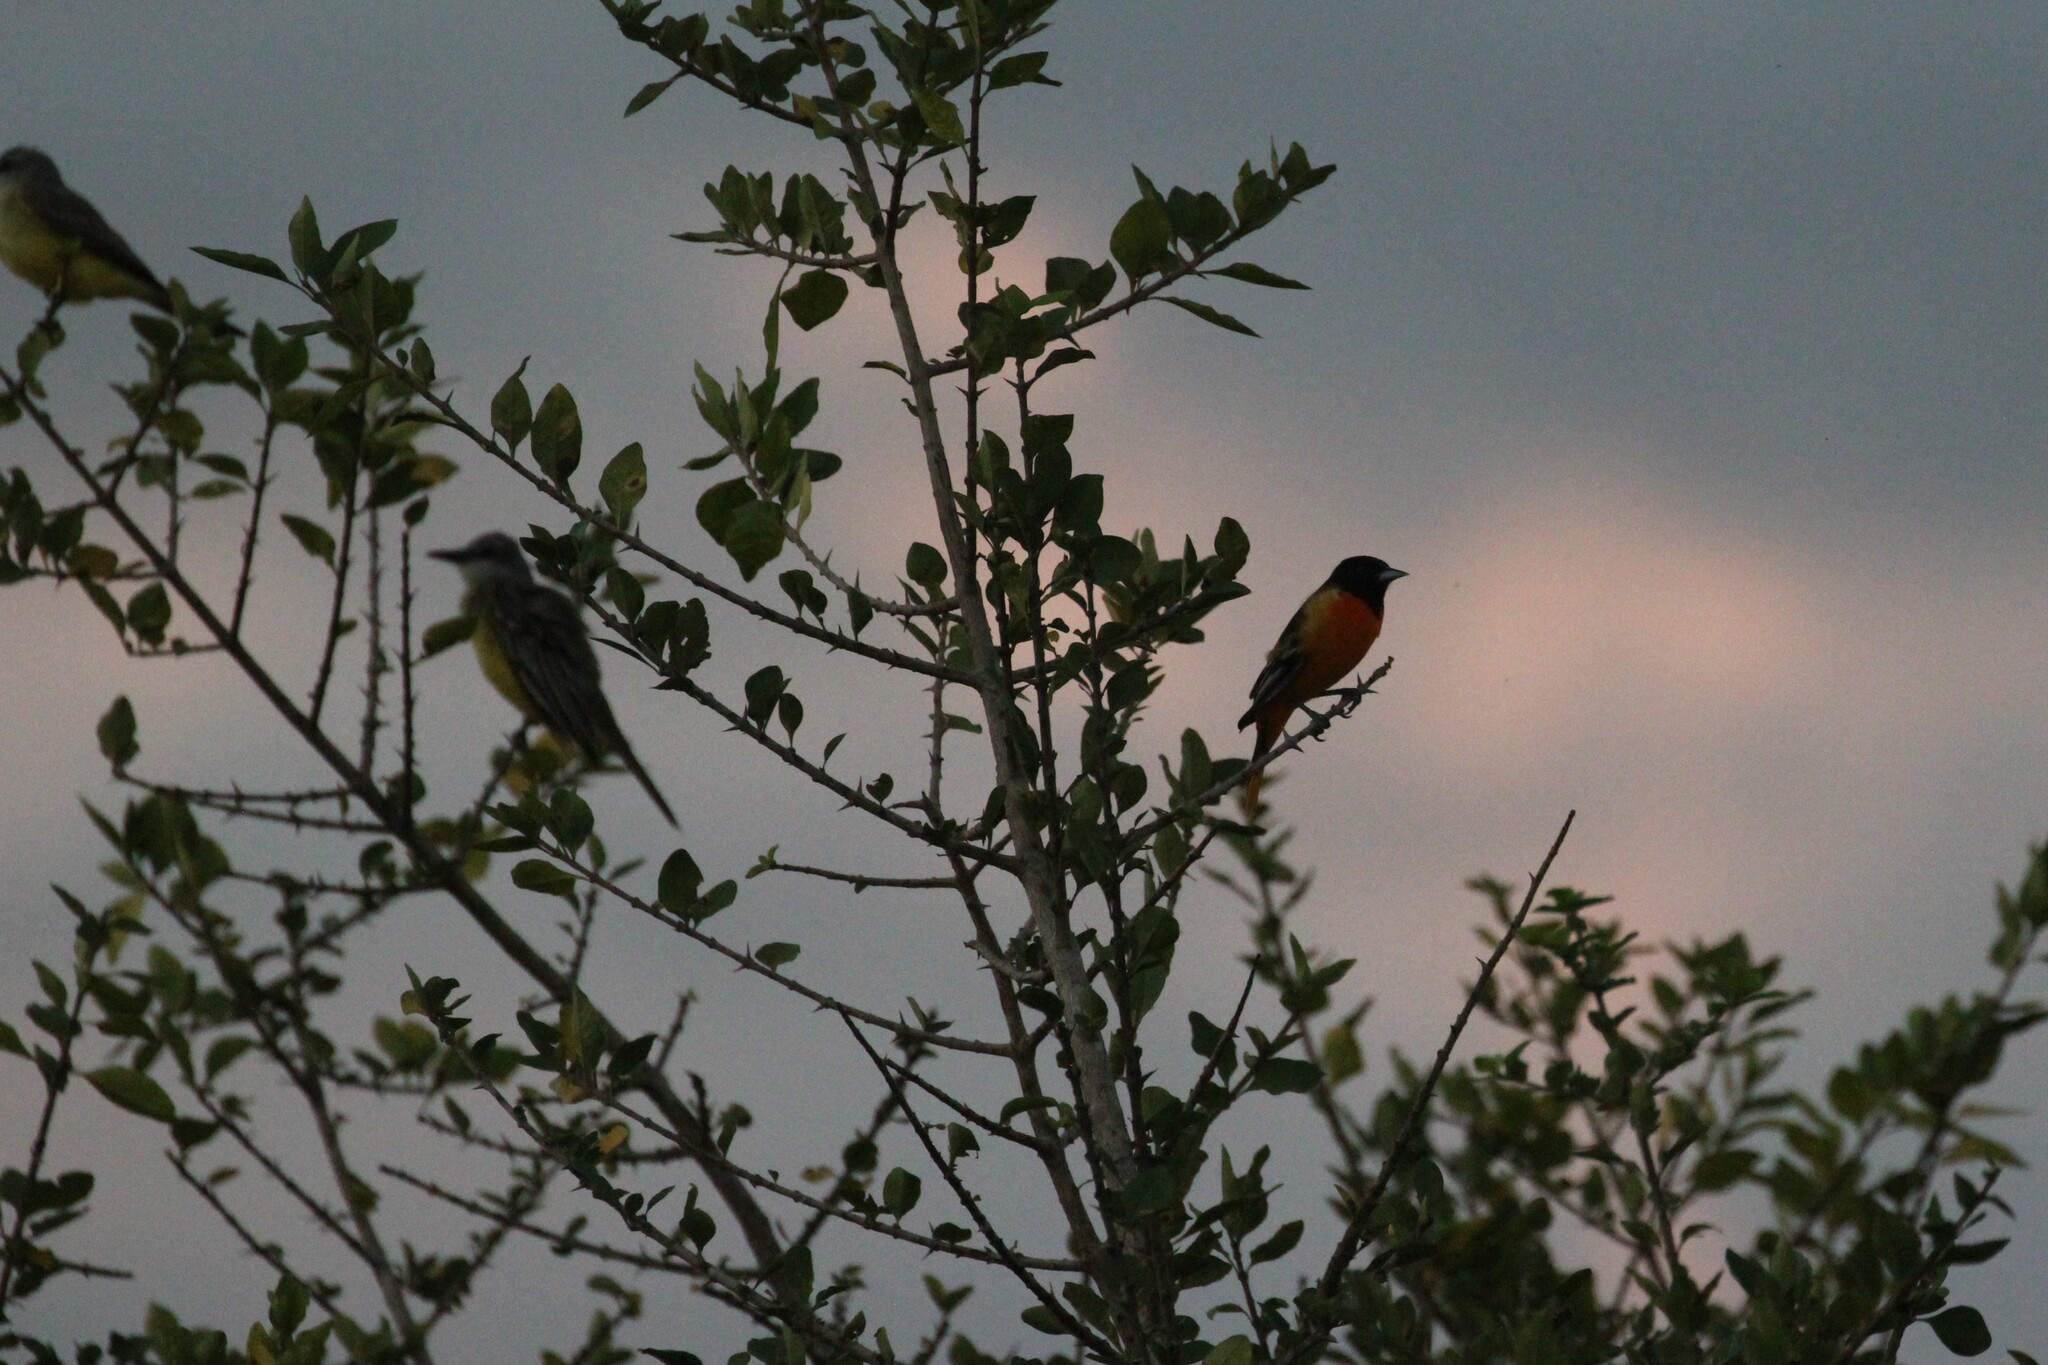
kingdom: Animalia
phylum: Chordata
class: Aves
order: Passeriformes
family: Icteridae
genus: Icterus
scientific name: Icterus galbula
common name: Baltimore oriole
